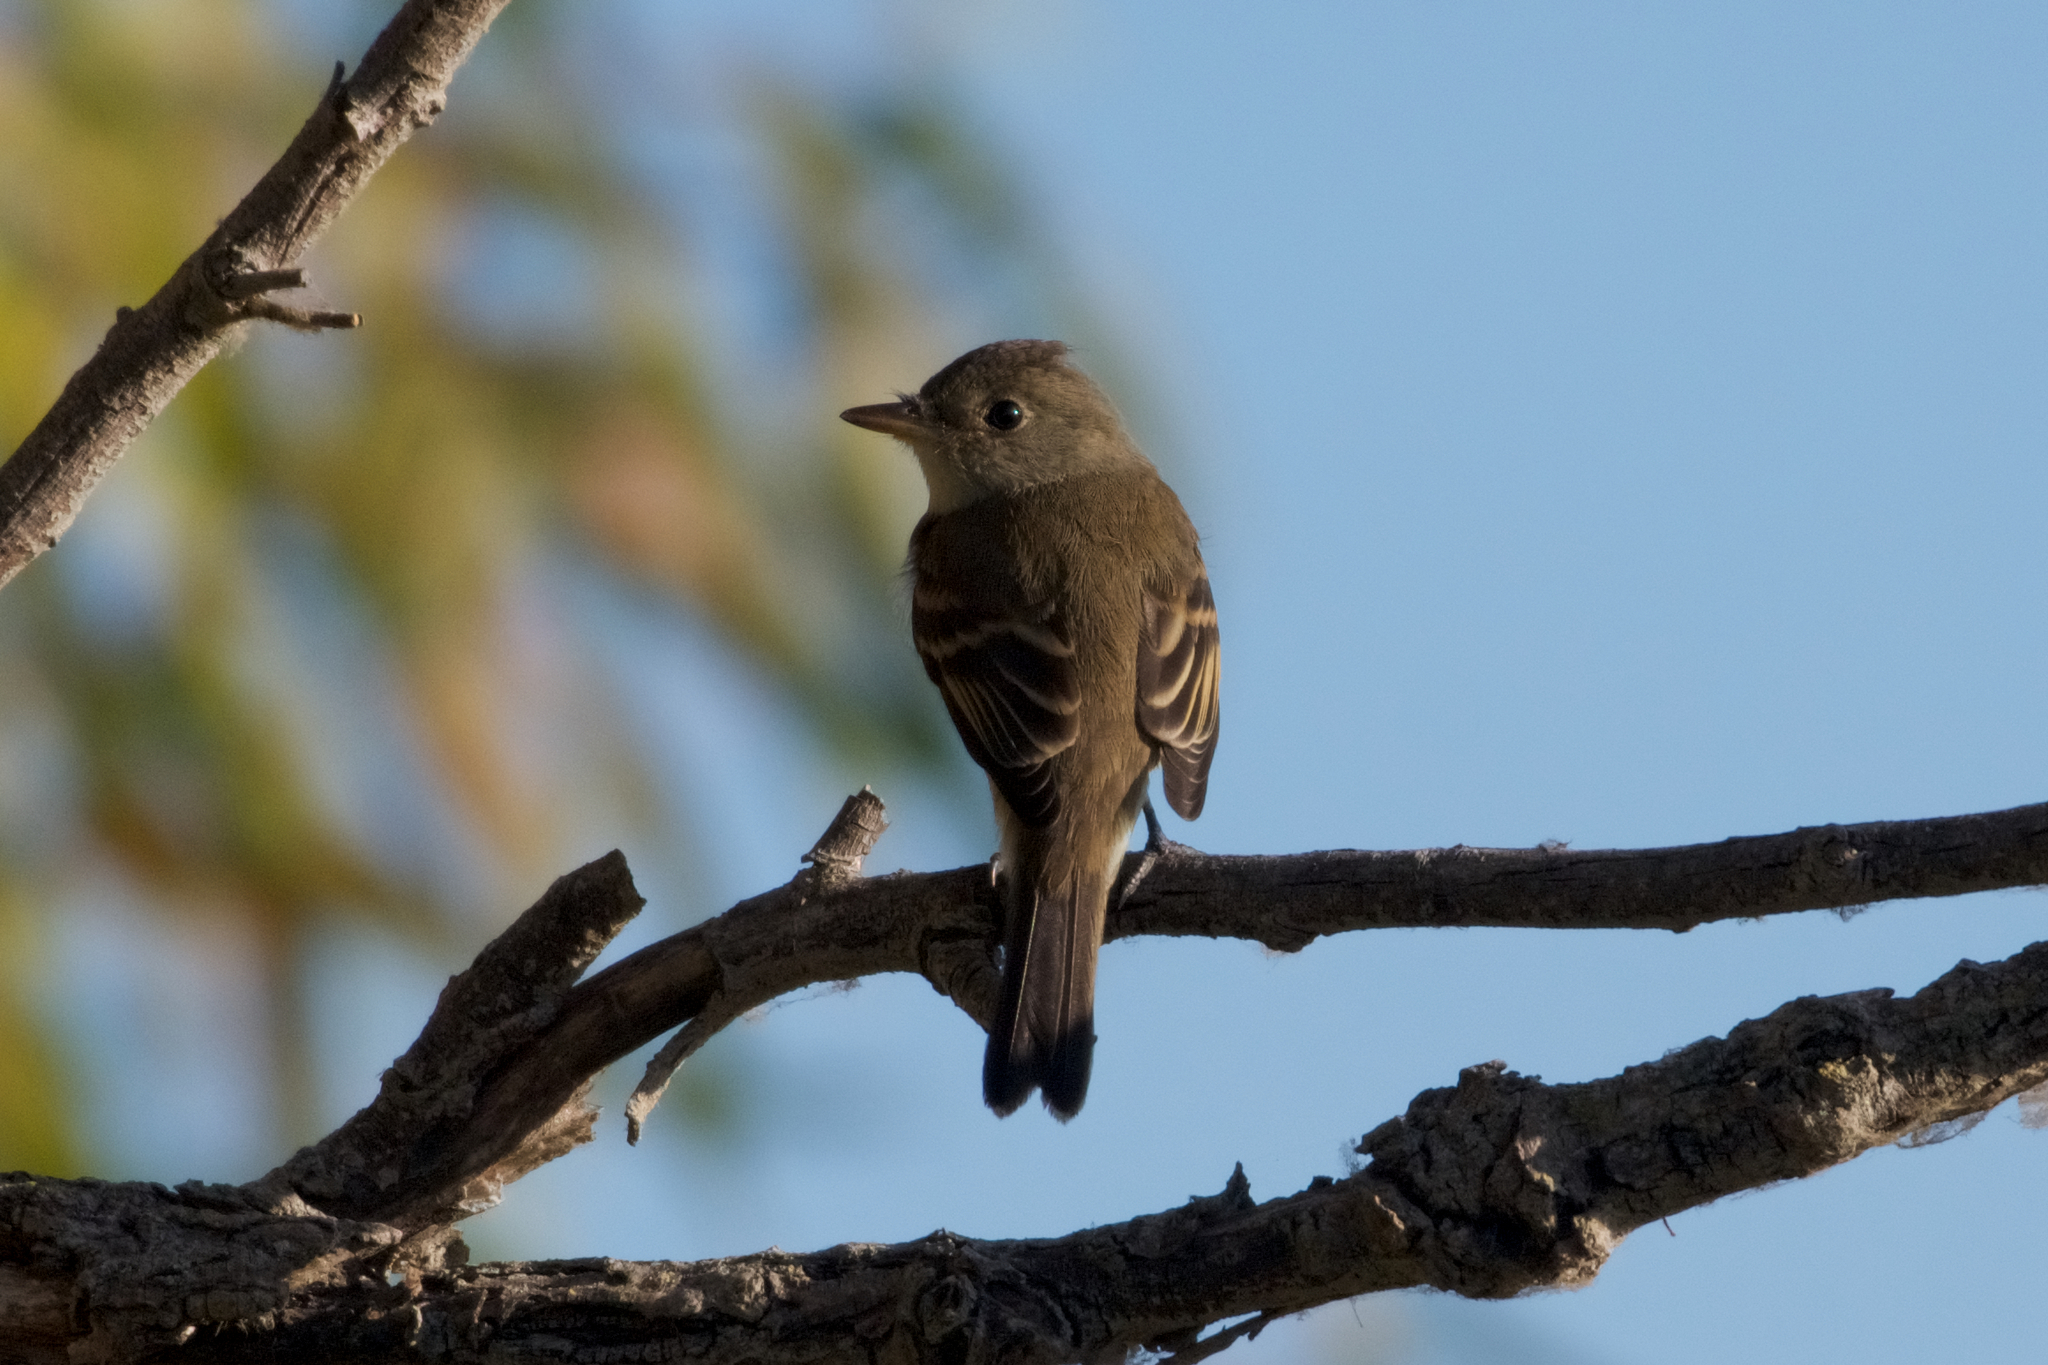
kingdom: Animalia
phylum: Chordata
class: Aves
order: Passeriformes
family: Tyrannidae
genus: Empidonax
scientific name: Empidonax traillii
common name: Willow flycatcher
